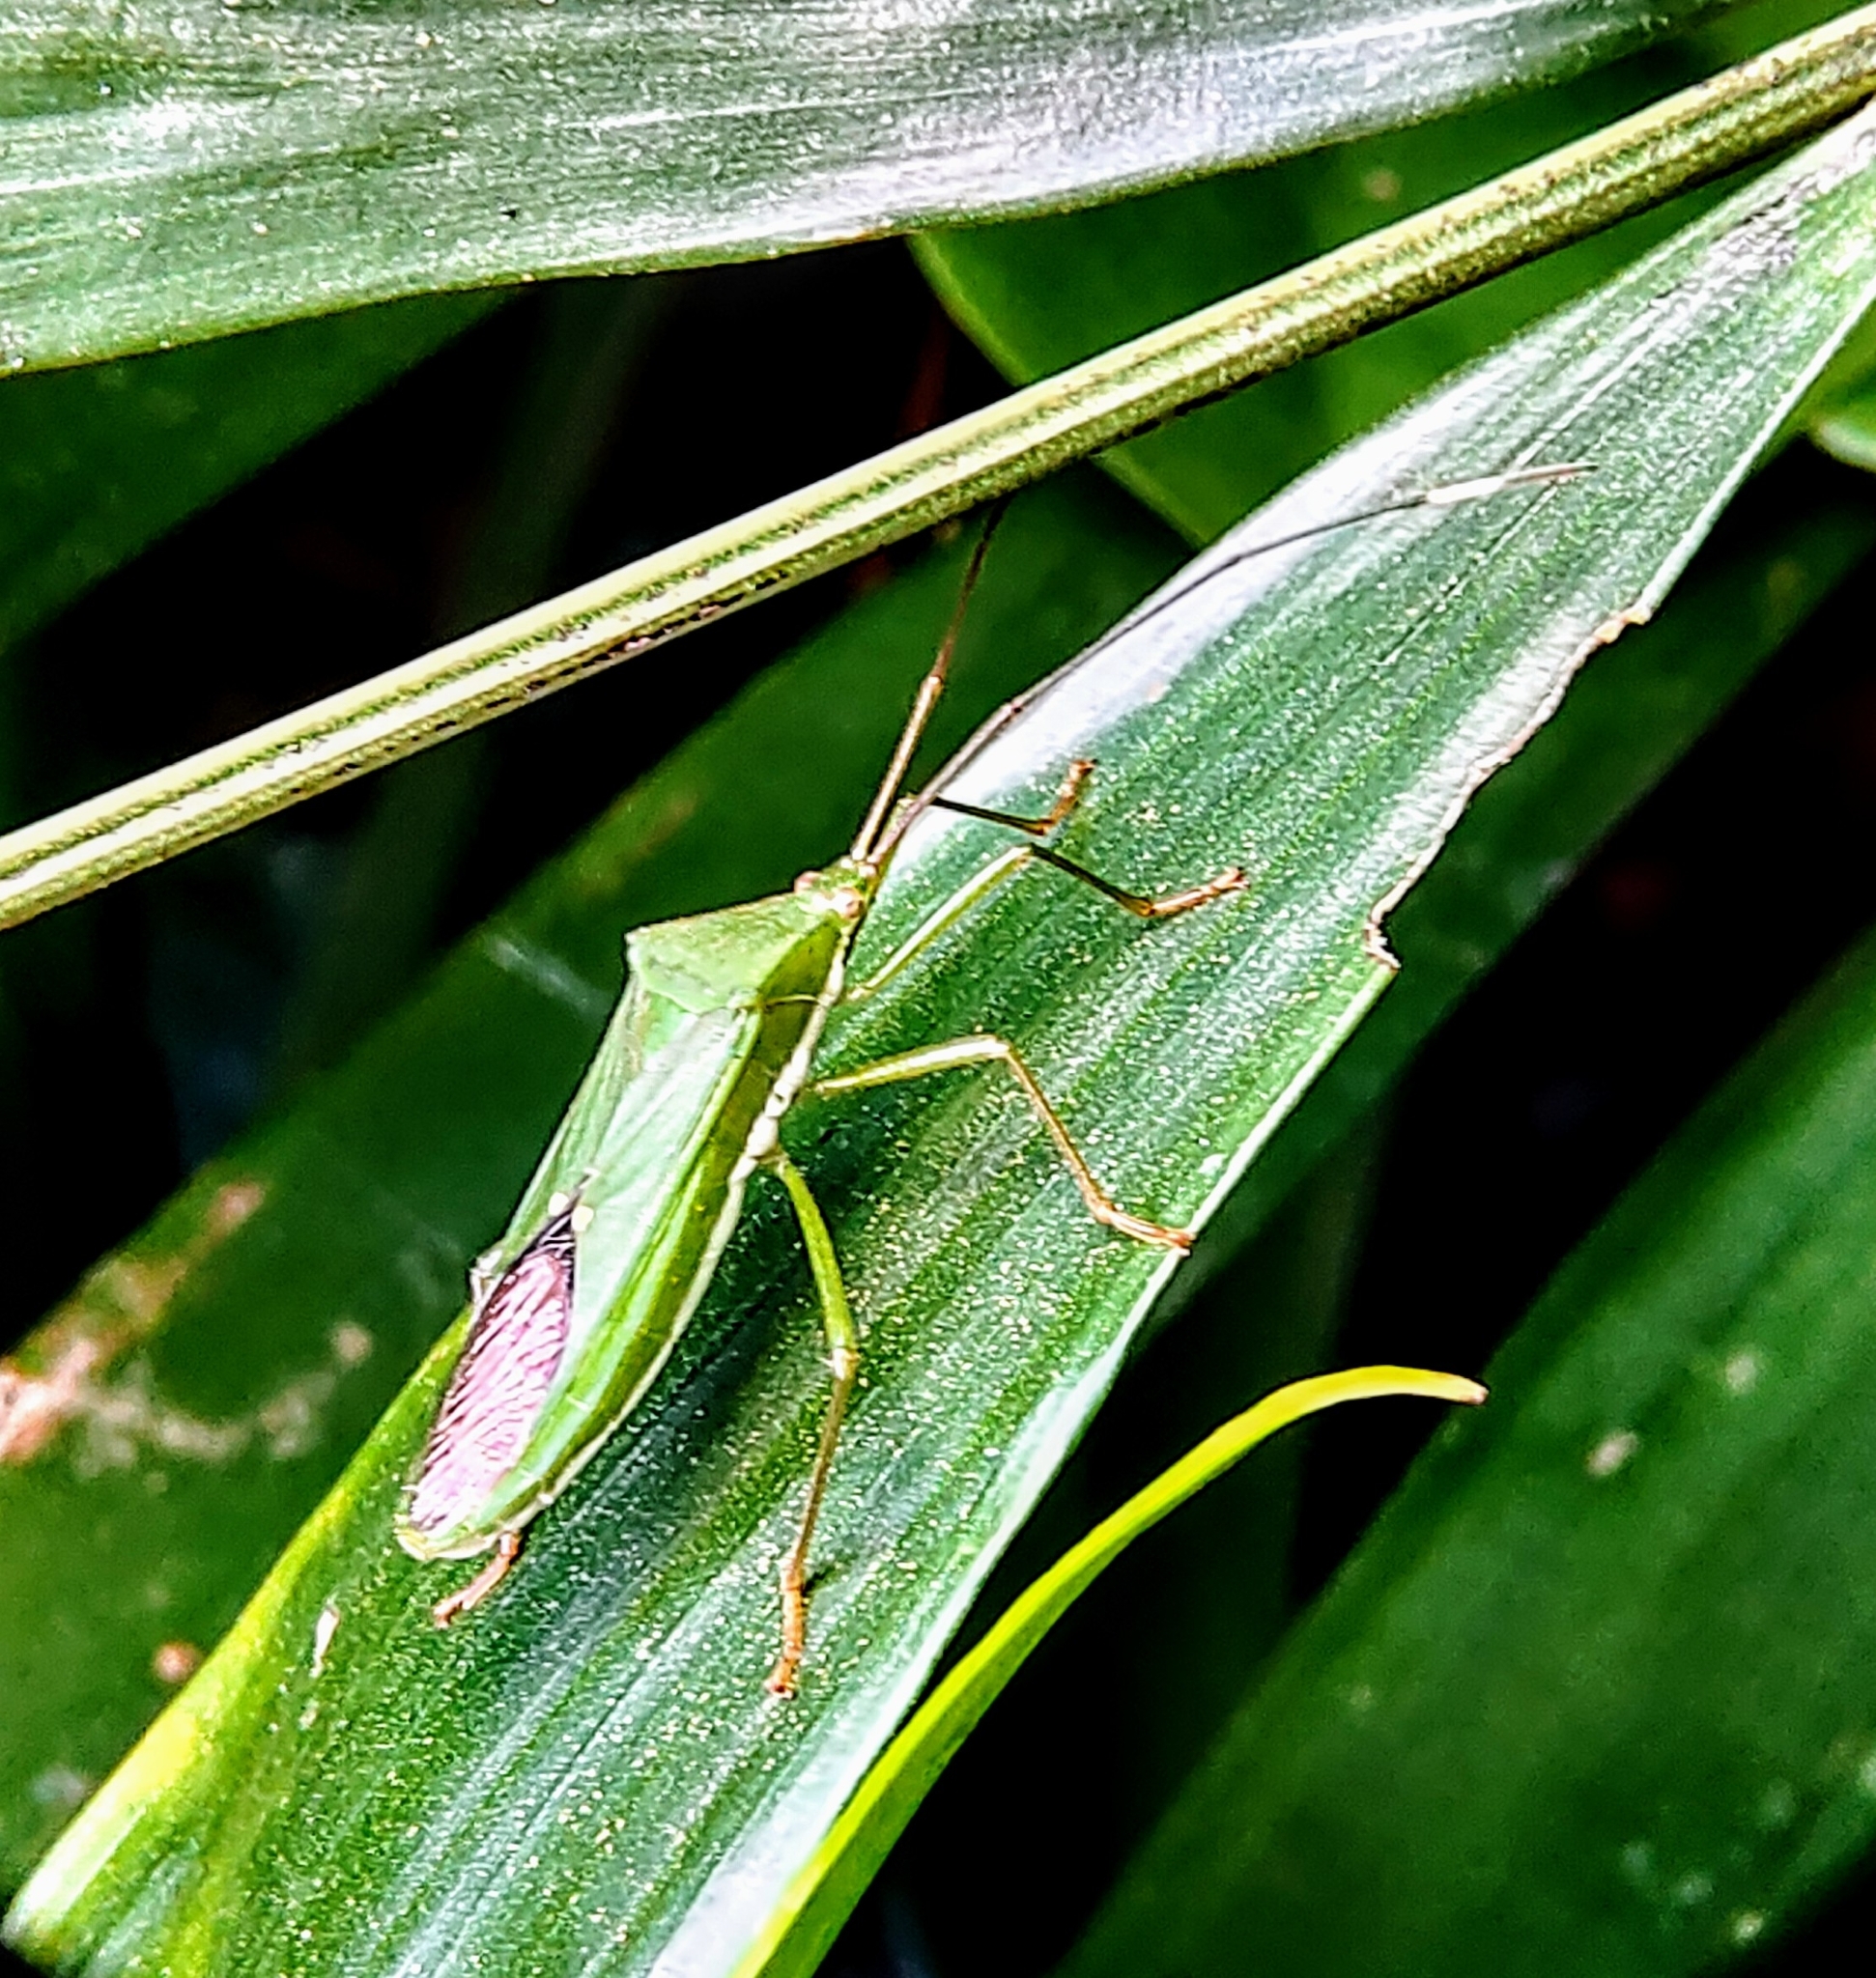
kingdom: Animalia
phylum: Arthropoda
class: Insecta
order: Hemiptera
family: Coreidae
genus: Homoeocerus
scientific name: Homoeocerus graminis
